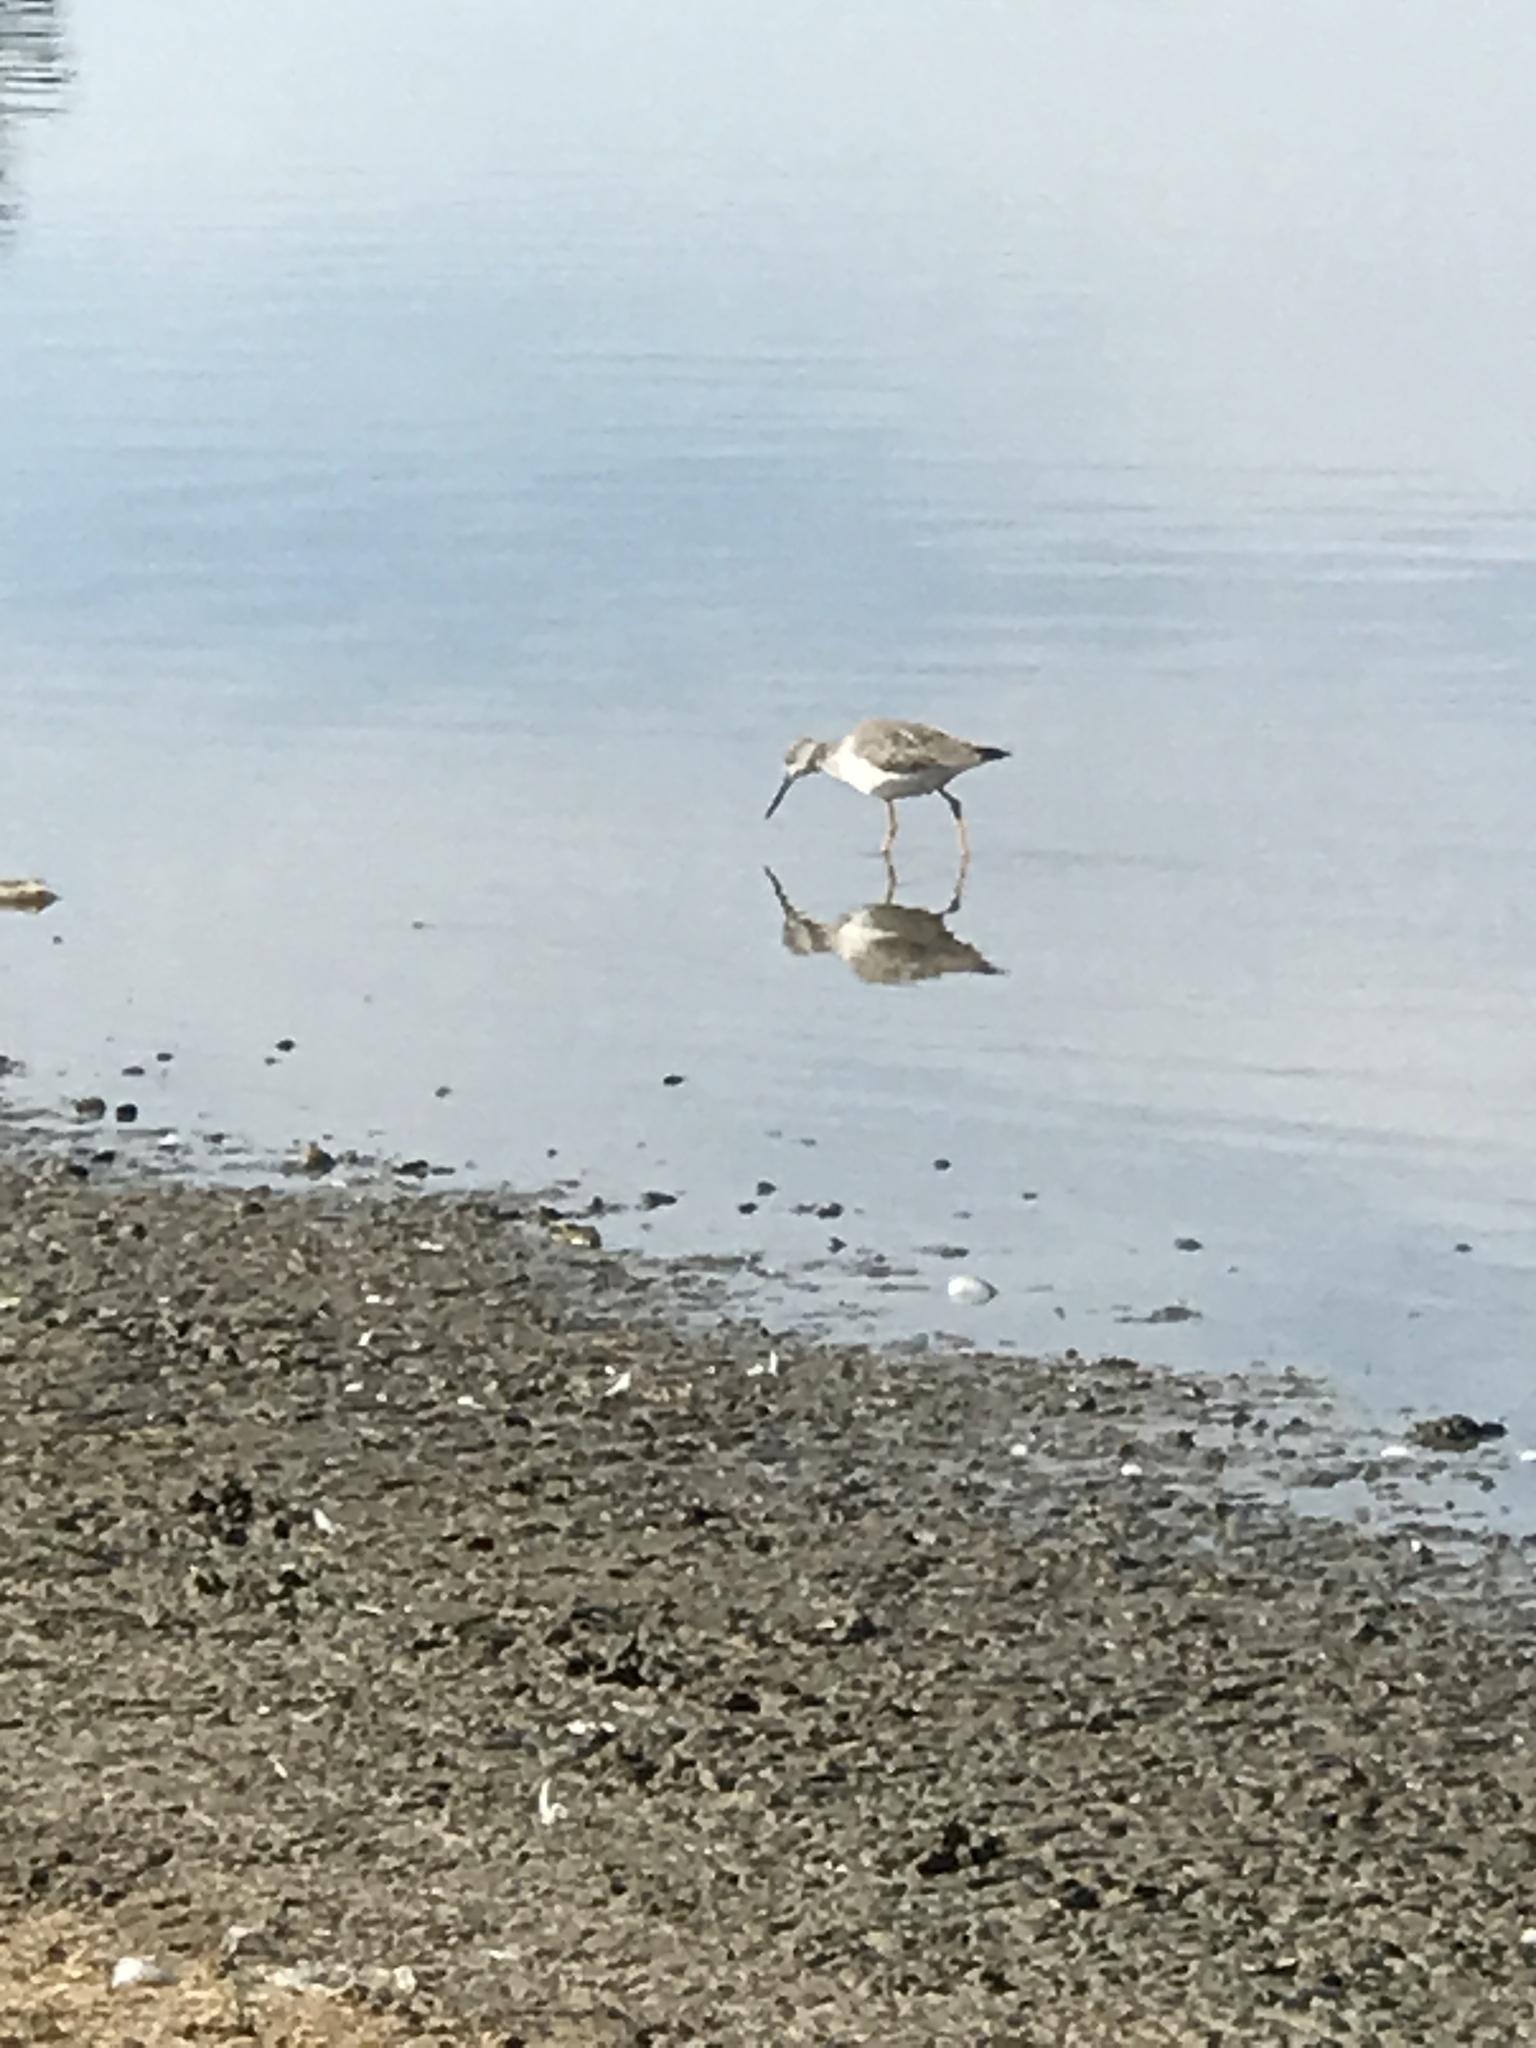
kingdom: Animalia
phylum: Chordata
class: Aves
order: Charadriiformes
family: Scolopacidae
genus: Tringa
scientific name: Tringa melanoleuca
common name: Greater yellowlegs
